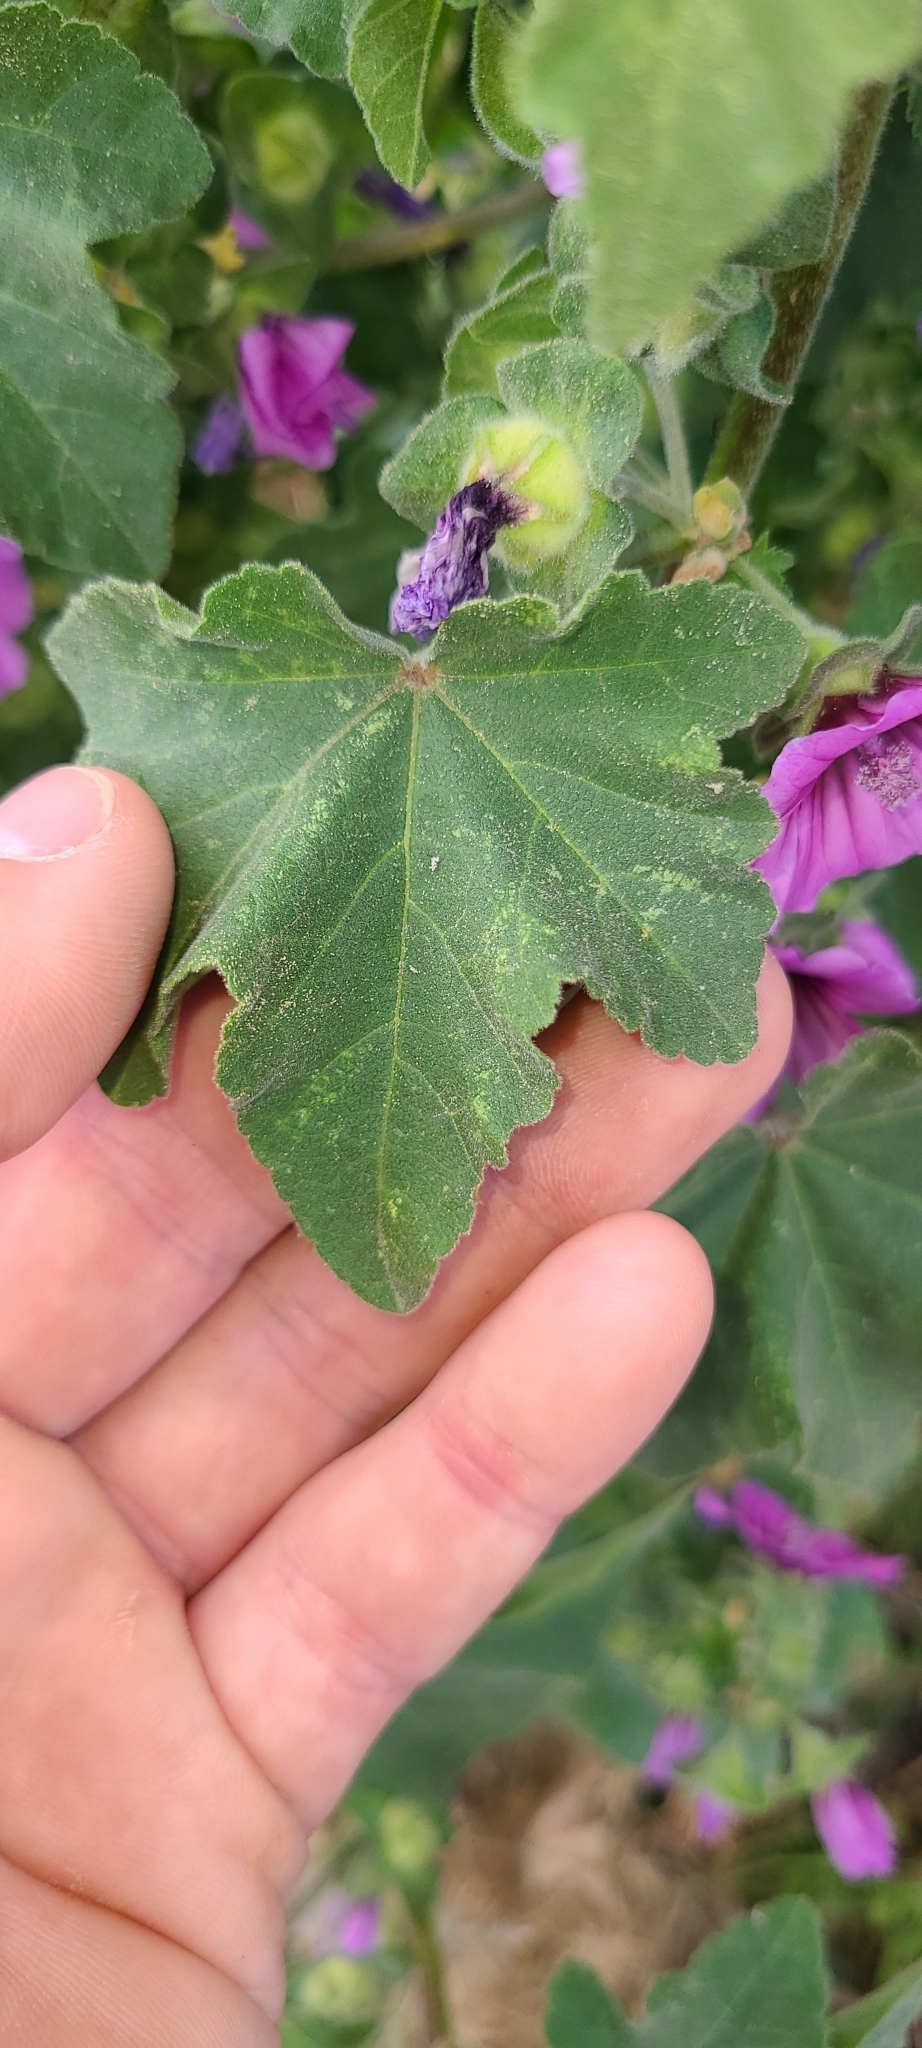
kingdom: Plantae
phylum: Tracheophyta
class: Magnoliopsida
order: Malvales
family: Malvaceae
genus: Malva
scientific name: Malva arborea
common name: Tree mallow
